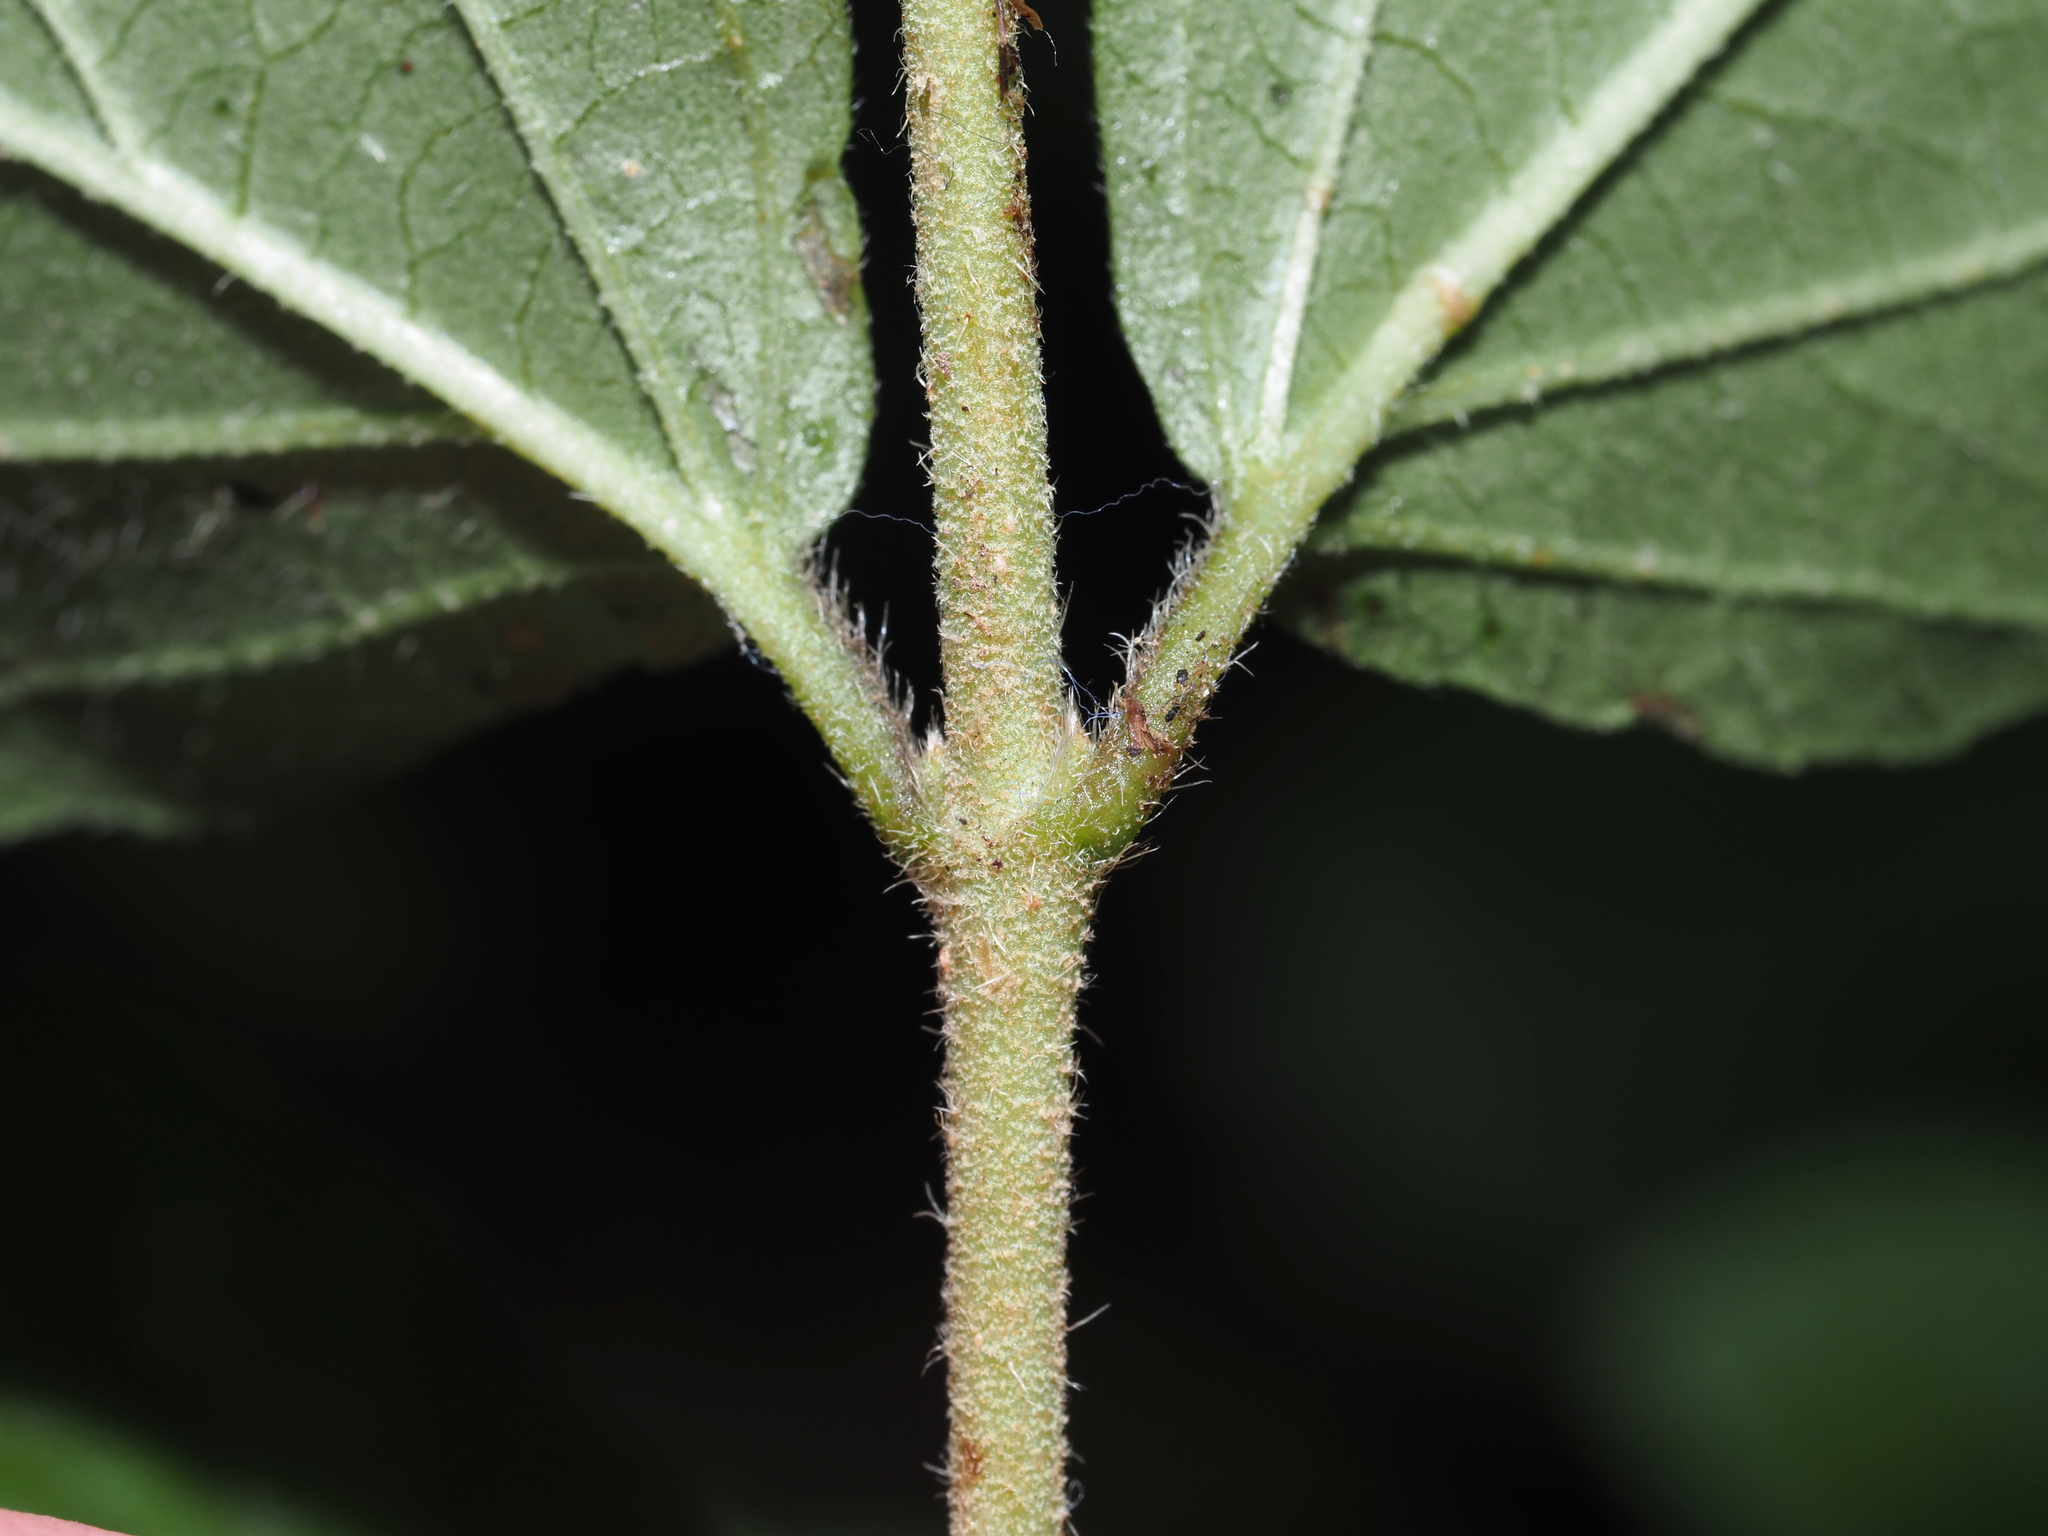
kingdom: Plantae
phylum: Tracheophyta
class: Magnoliopsida
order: Dipsacales
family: Viburnaceae
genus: Viburnum
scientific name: Viburnum dilatatum
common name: Linden arrowwood
